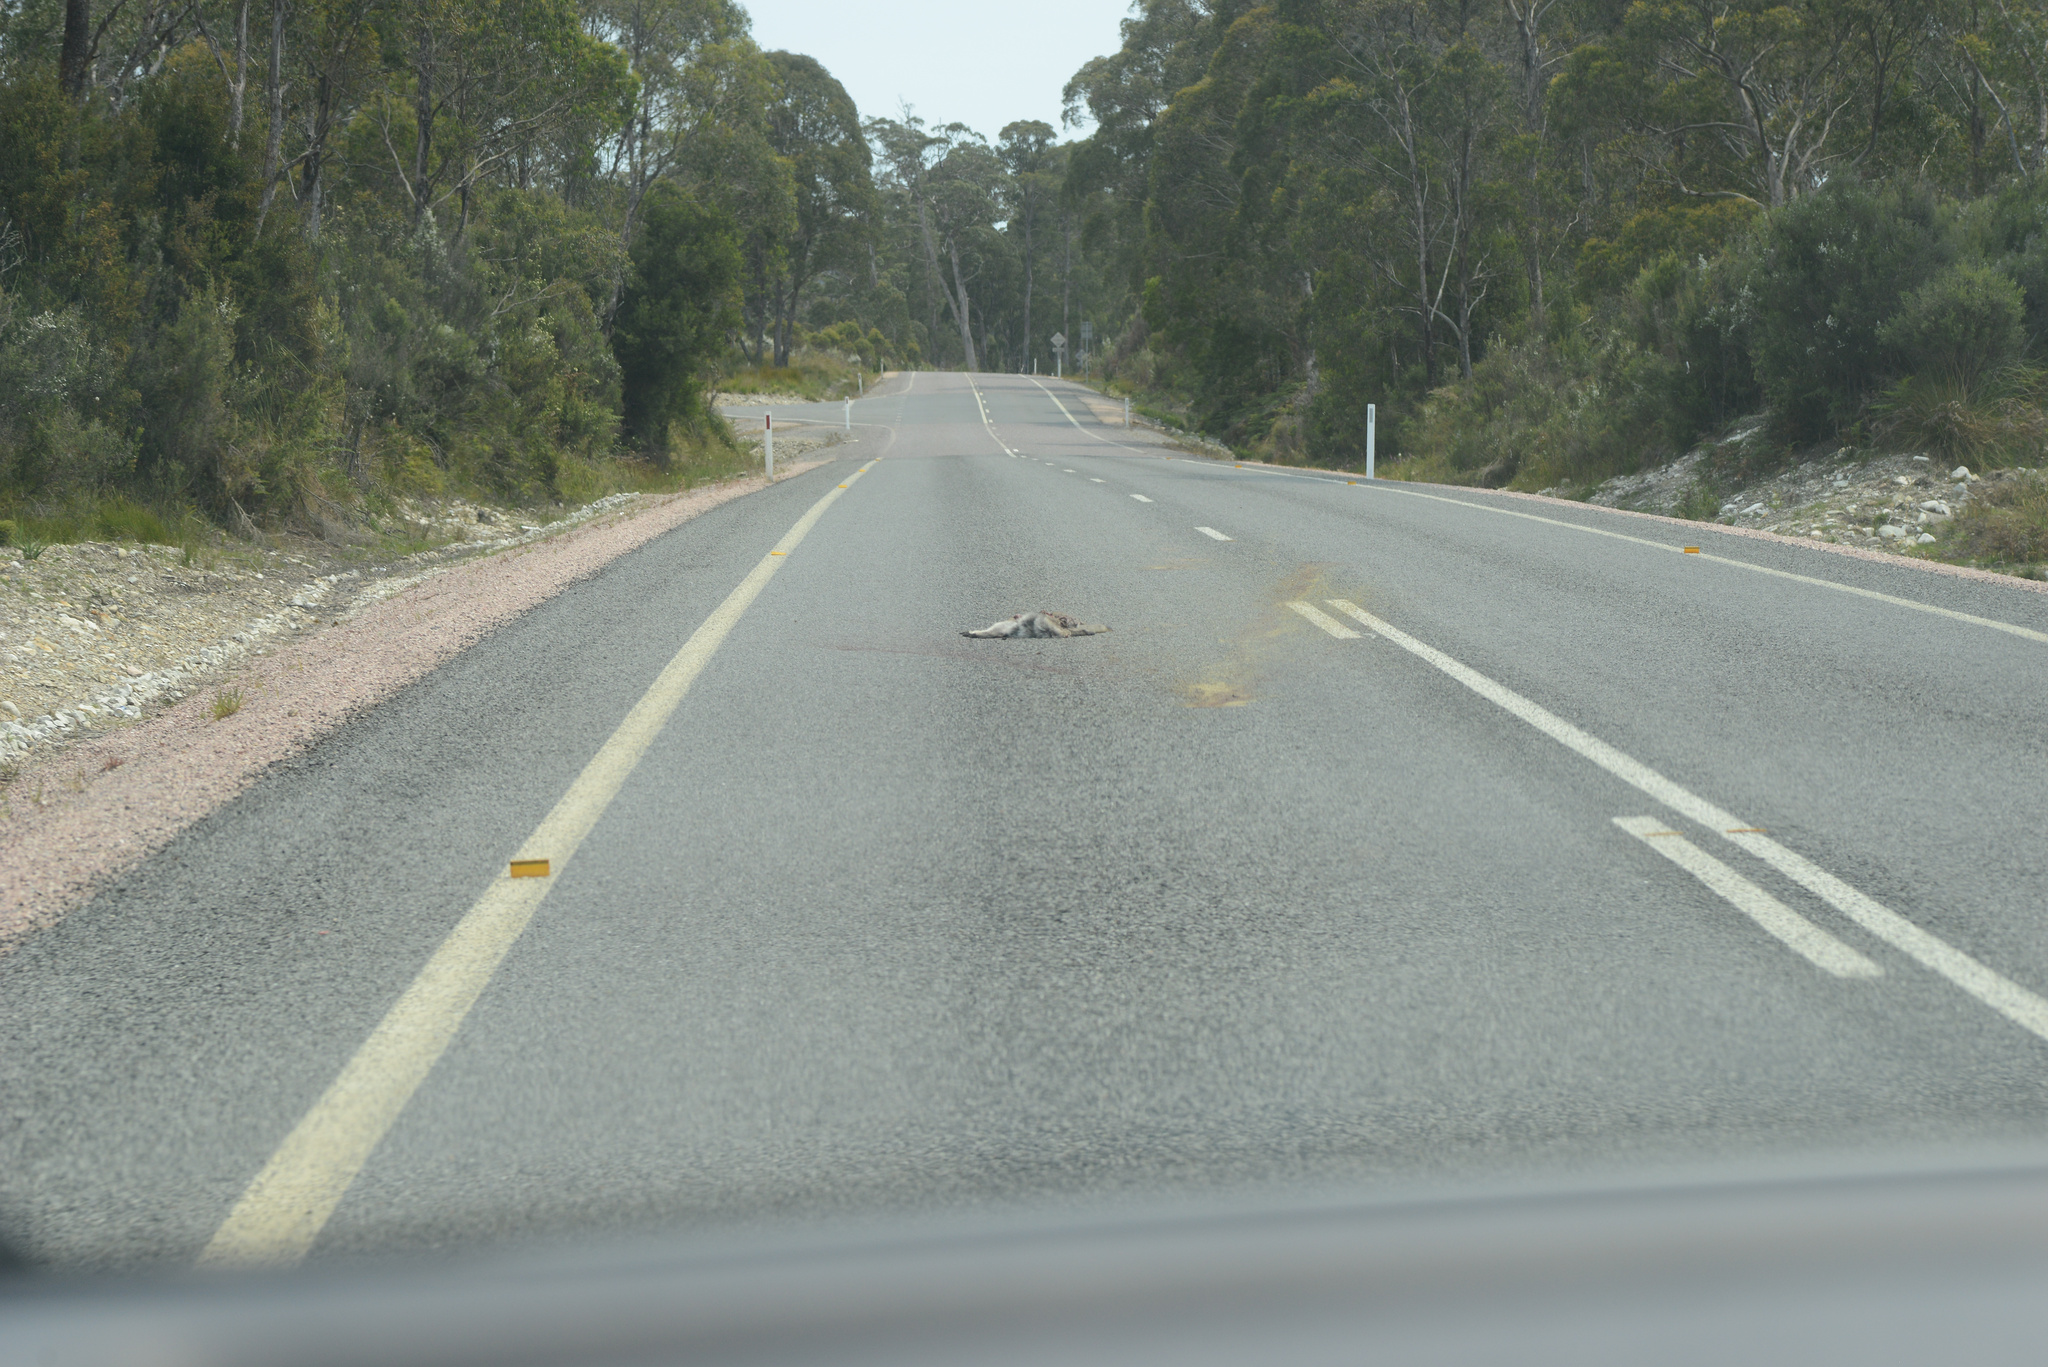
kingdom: Animalia
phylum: Chordata
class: Mammalia
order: Diprotodontia
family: Macropodidae
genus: Notamacropus
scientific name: Notamacropus rufogriseus
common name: Red-necked wallaby
